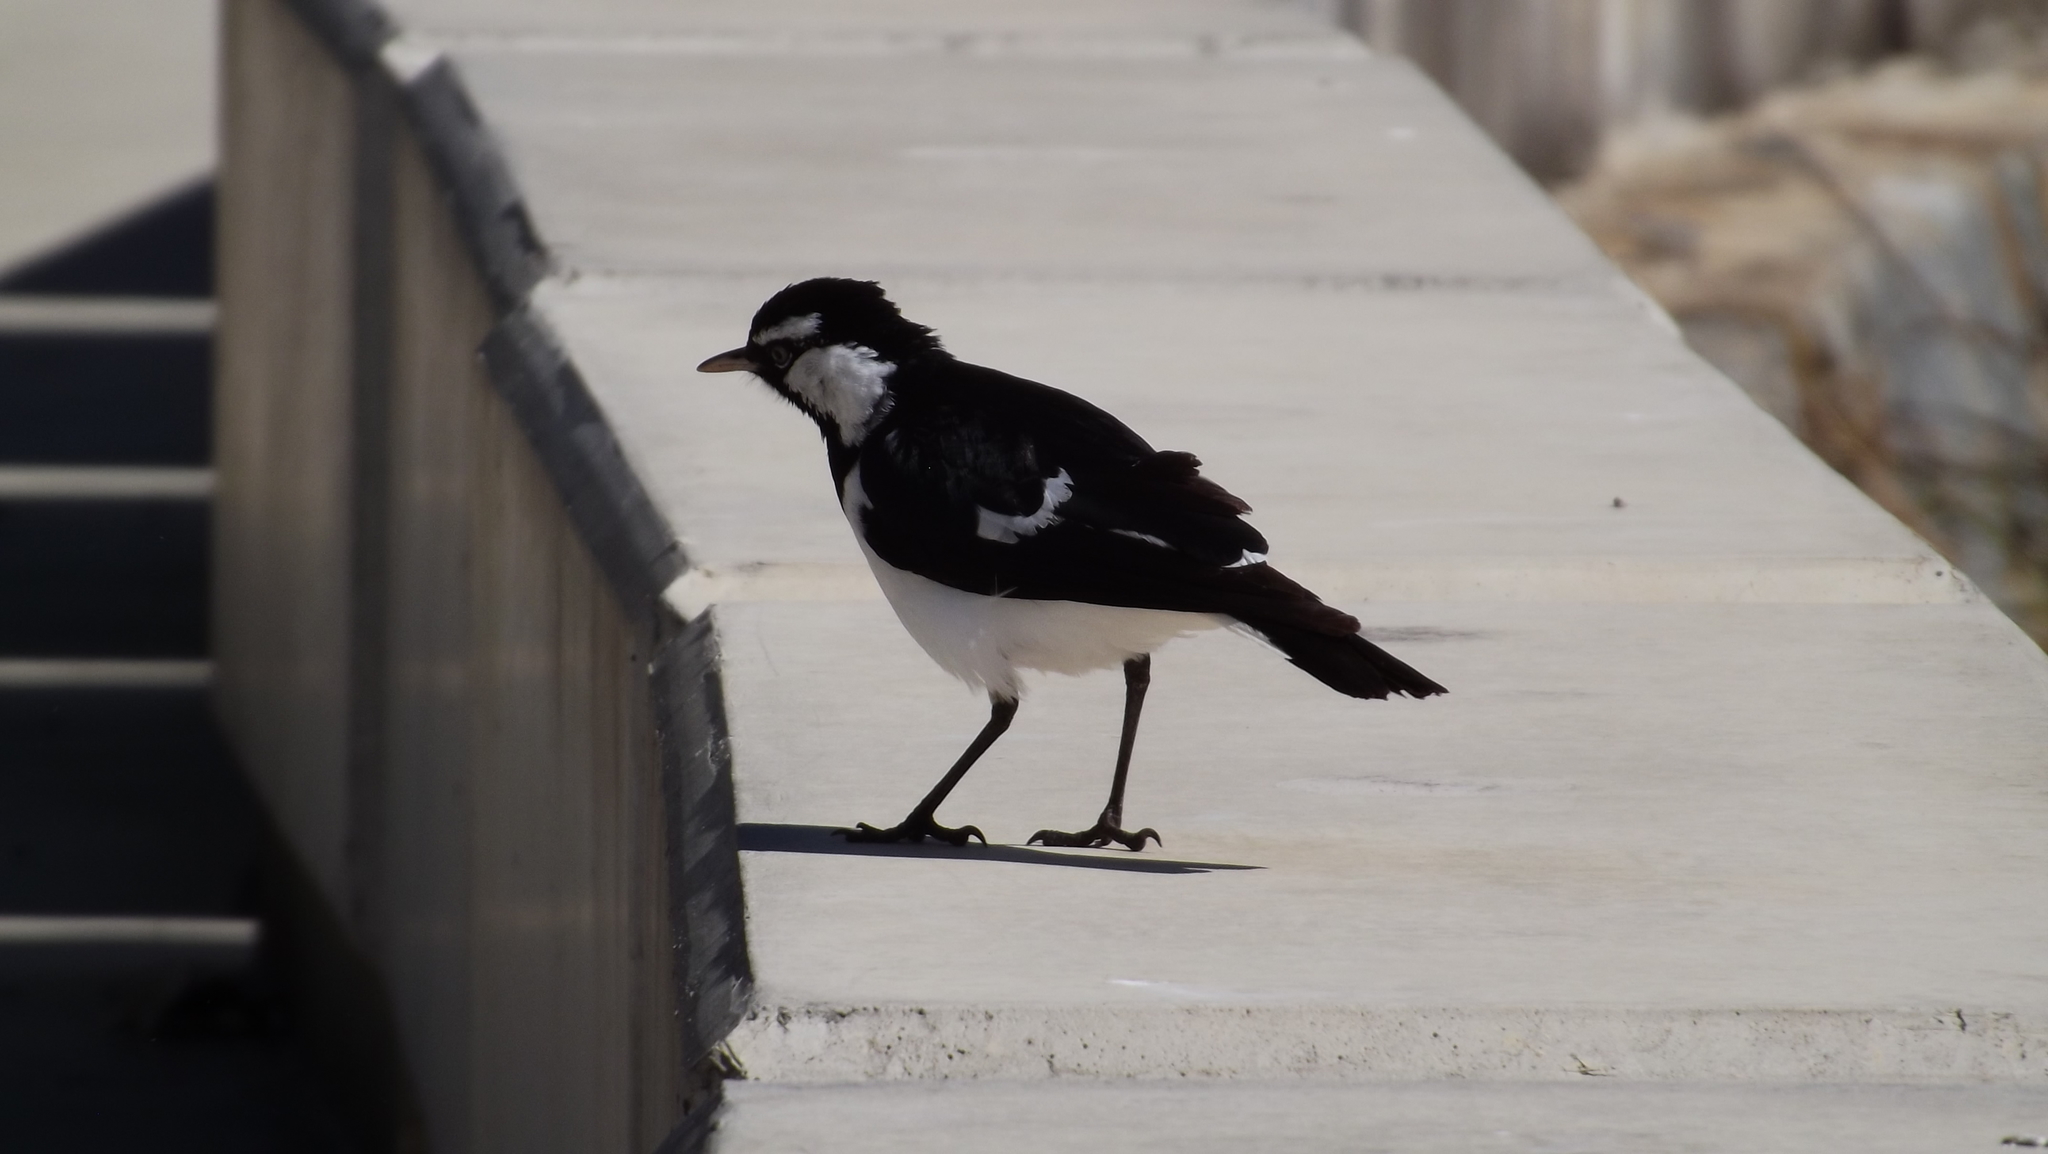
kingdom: Animalia
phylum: Chordata
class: Aves
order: Passeriformes
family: Monarchidae
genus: Grallina
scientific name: Grallina cyanoleuca
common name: Magpie-lark
